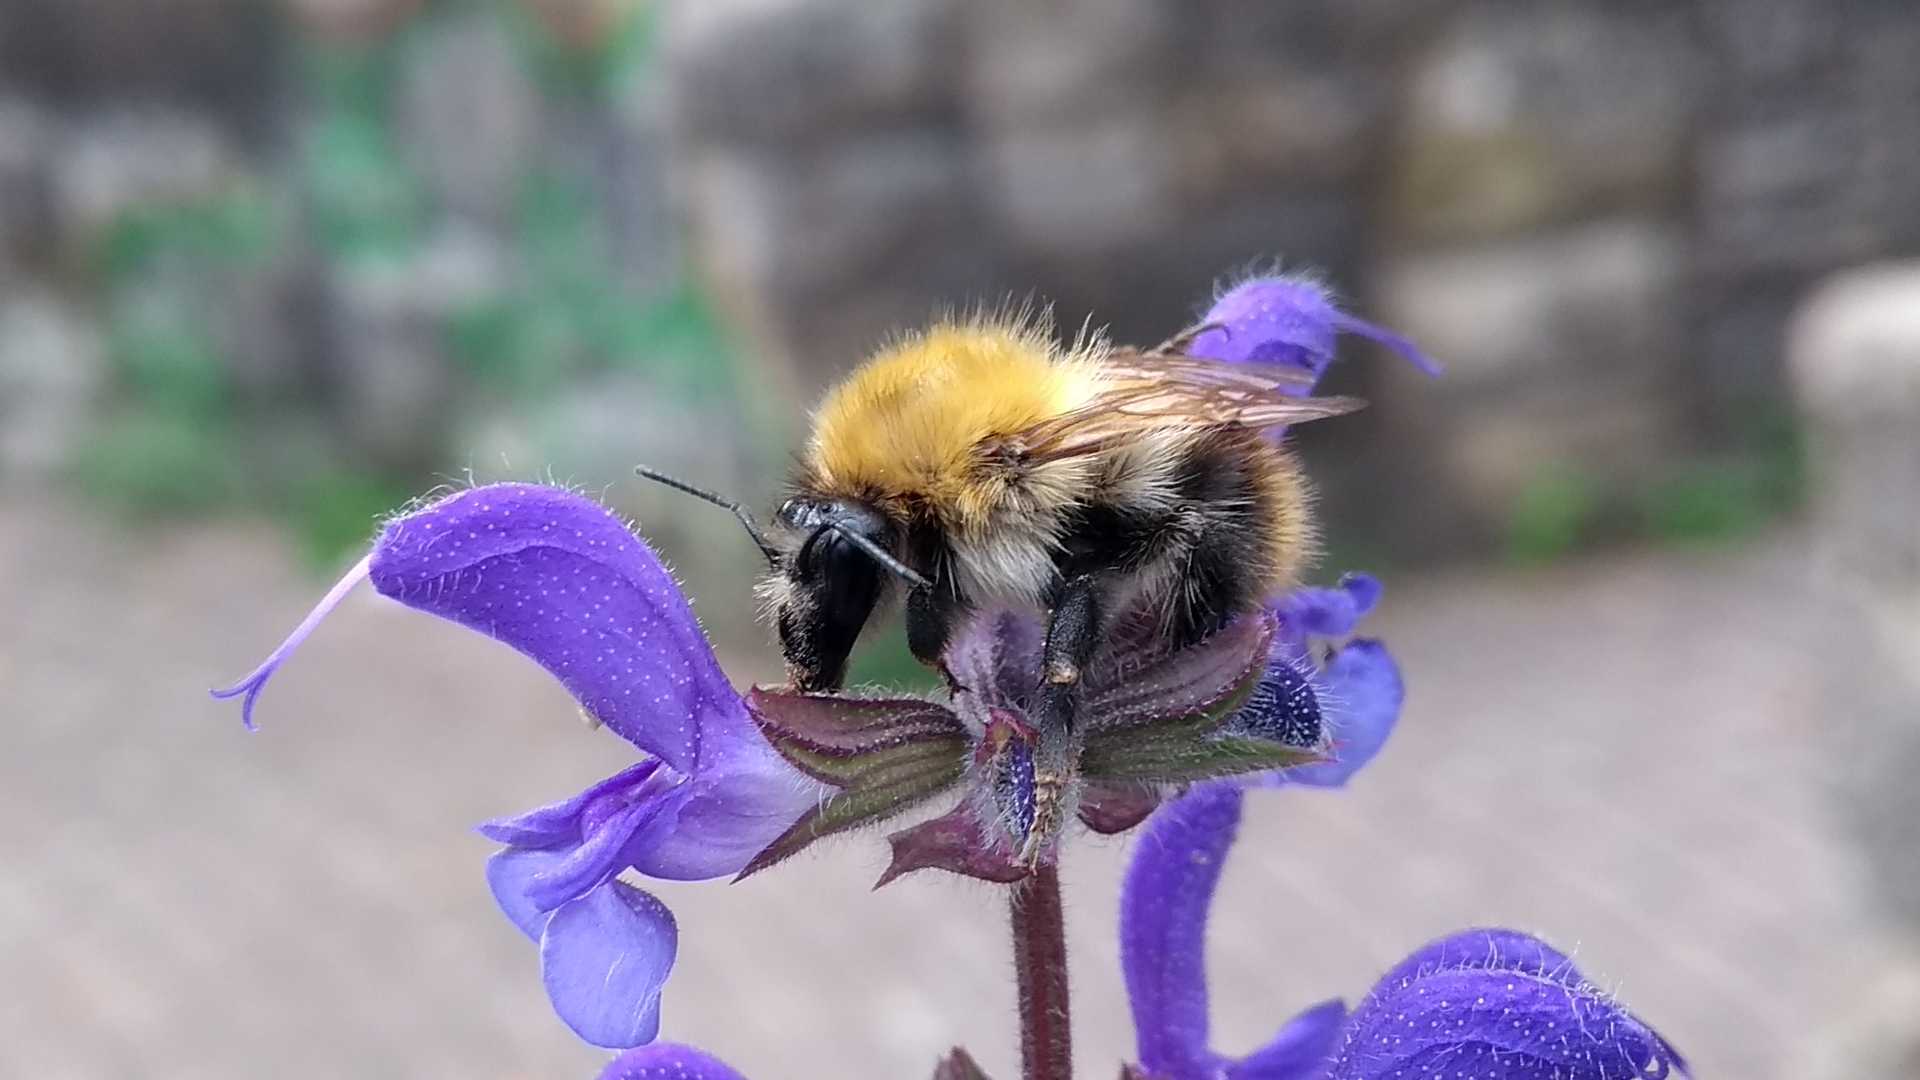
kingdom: Animalia
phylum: Arthropoda
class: Insecta
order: Hymenoptera
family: Apidae
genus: Bombus
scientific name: Bombus pascuorum
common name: Common carder bee
